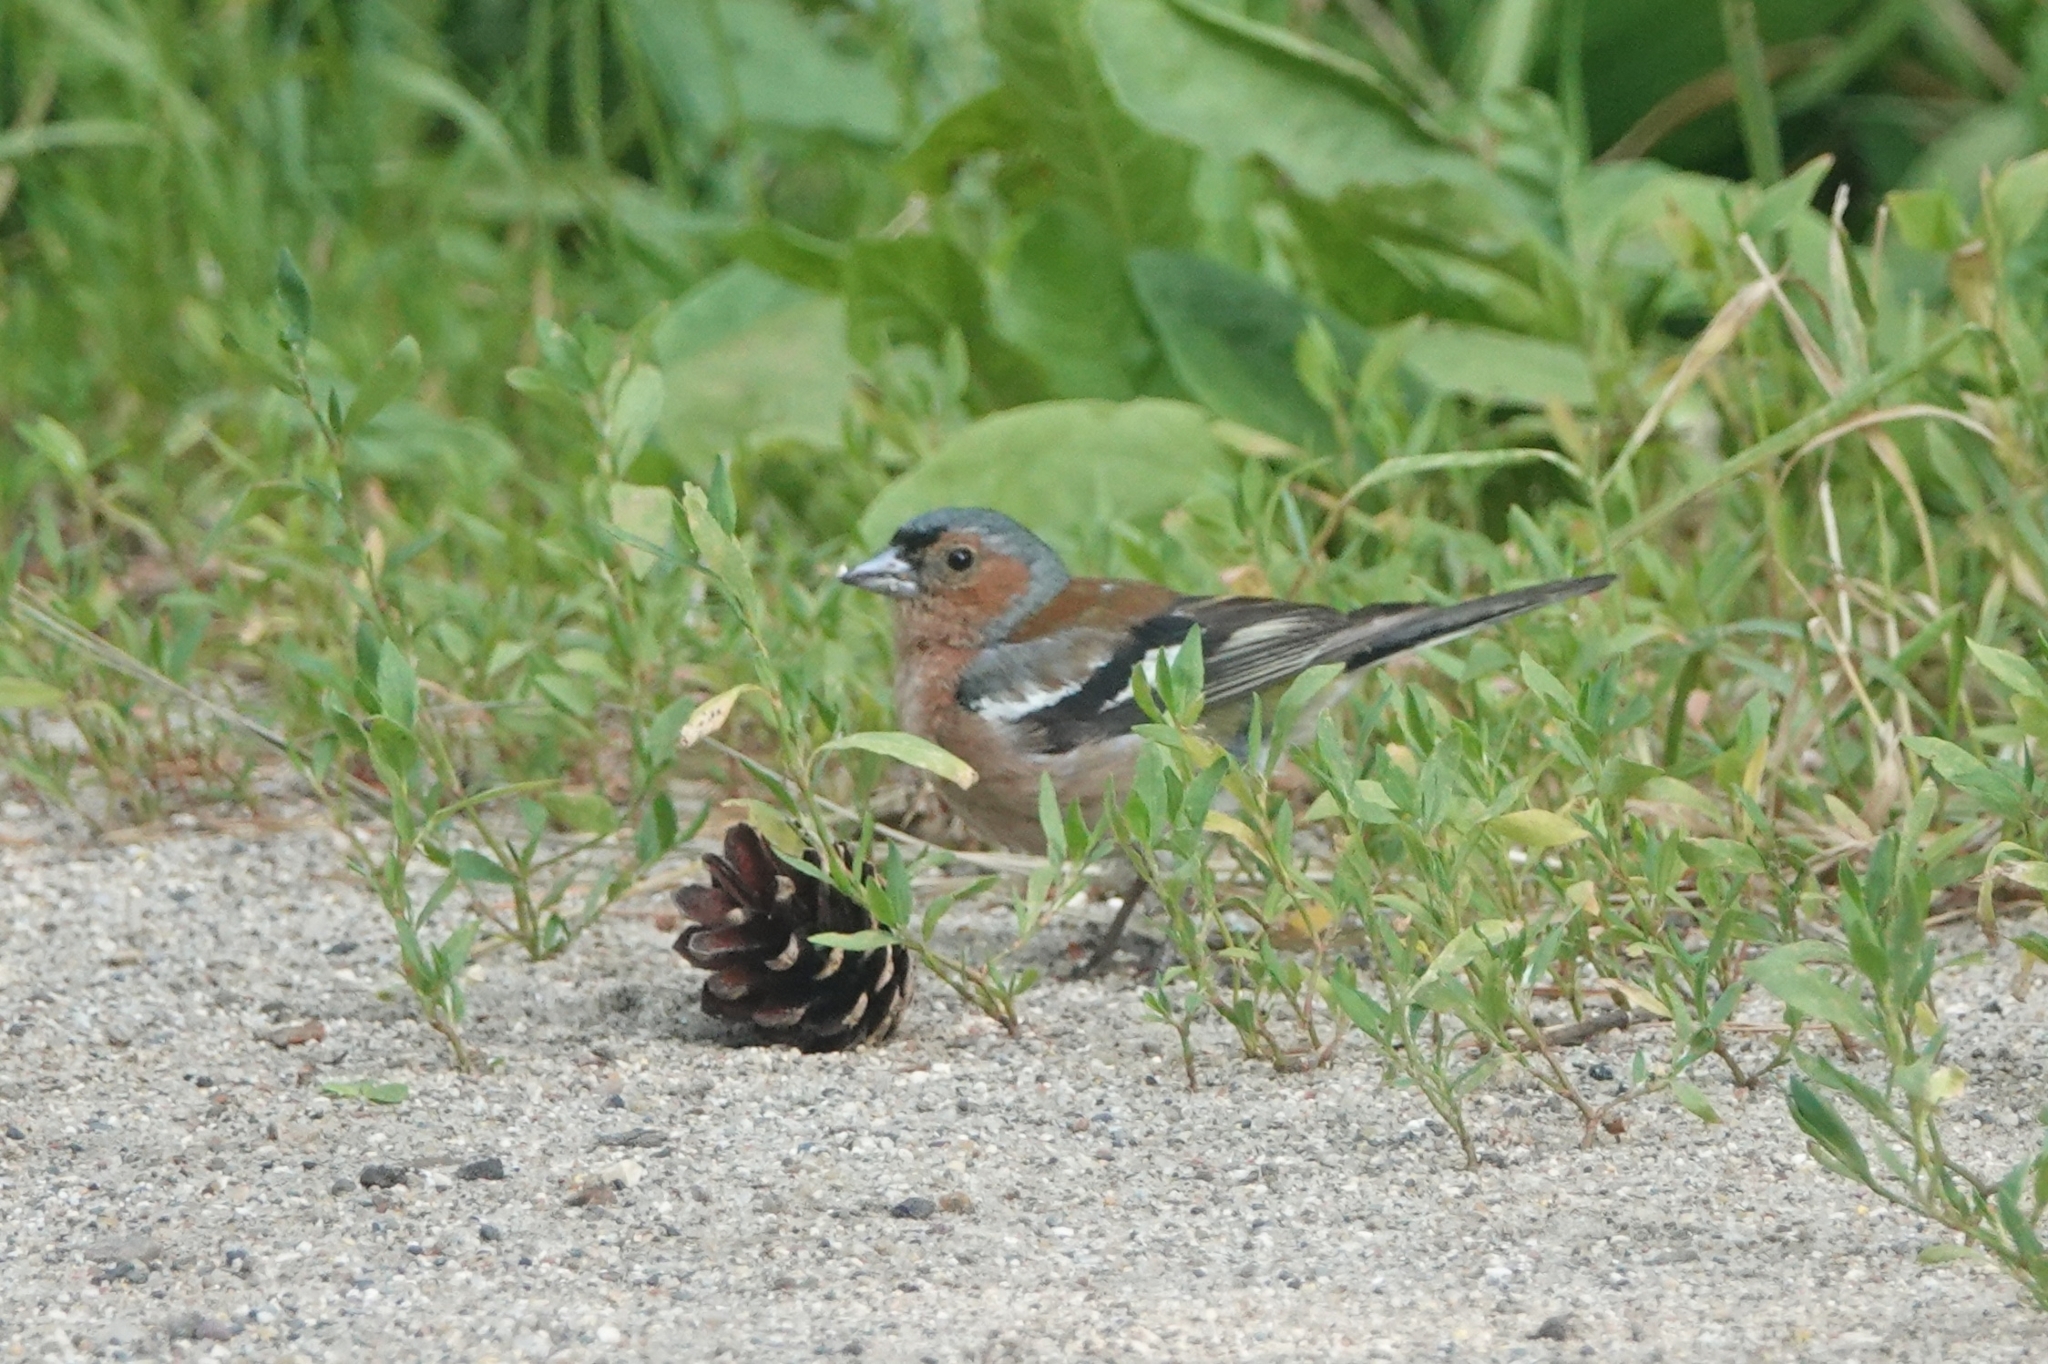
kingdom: Animalia
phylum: Chordata
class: Aves
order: Passeriformes
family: Fringillidae
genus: Fringilla
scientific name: Fringilla coelebs
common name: Common chaffinch
